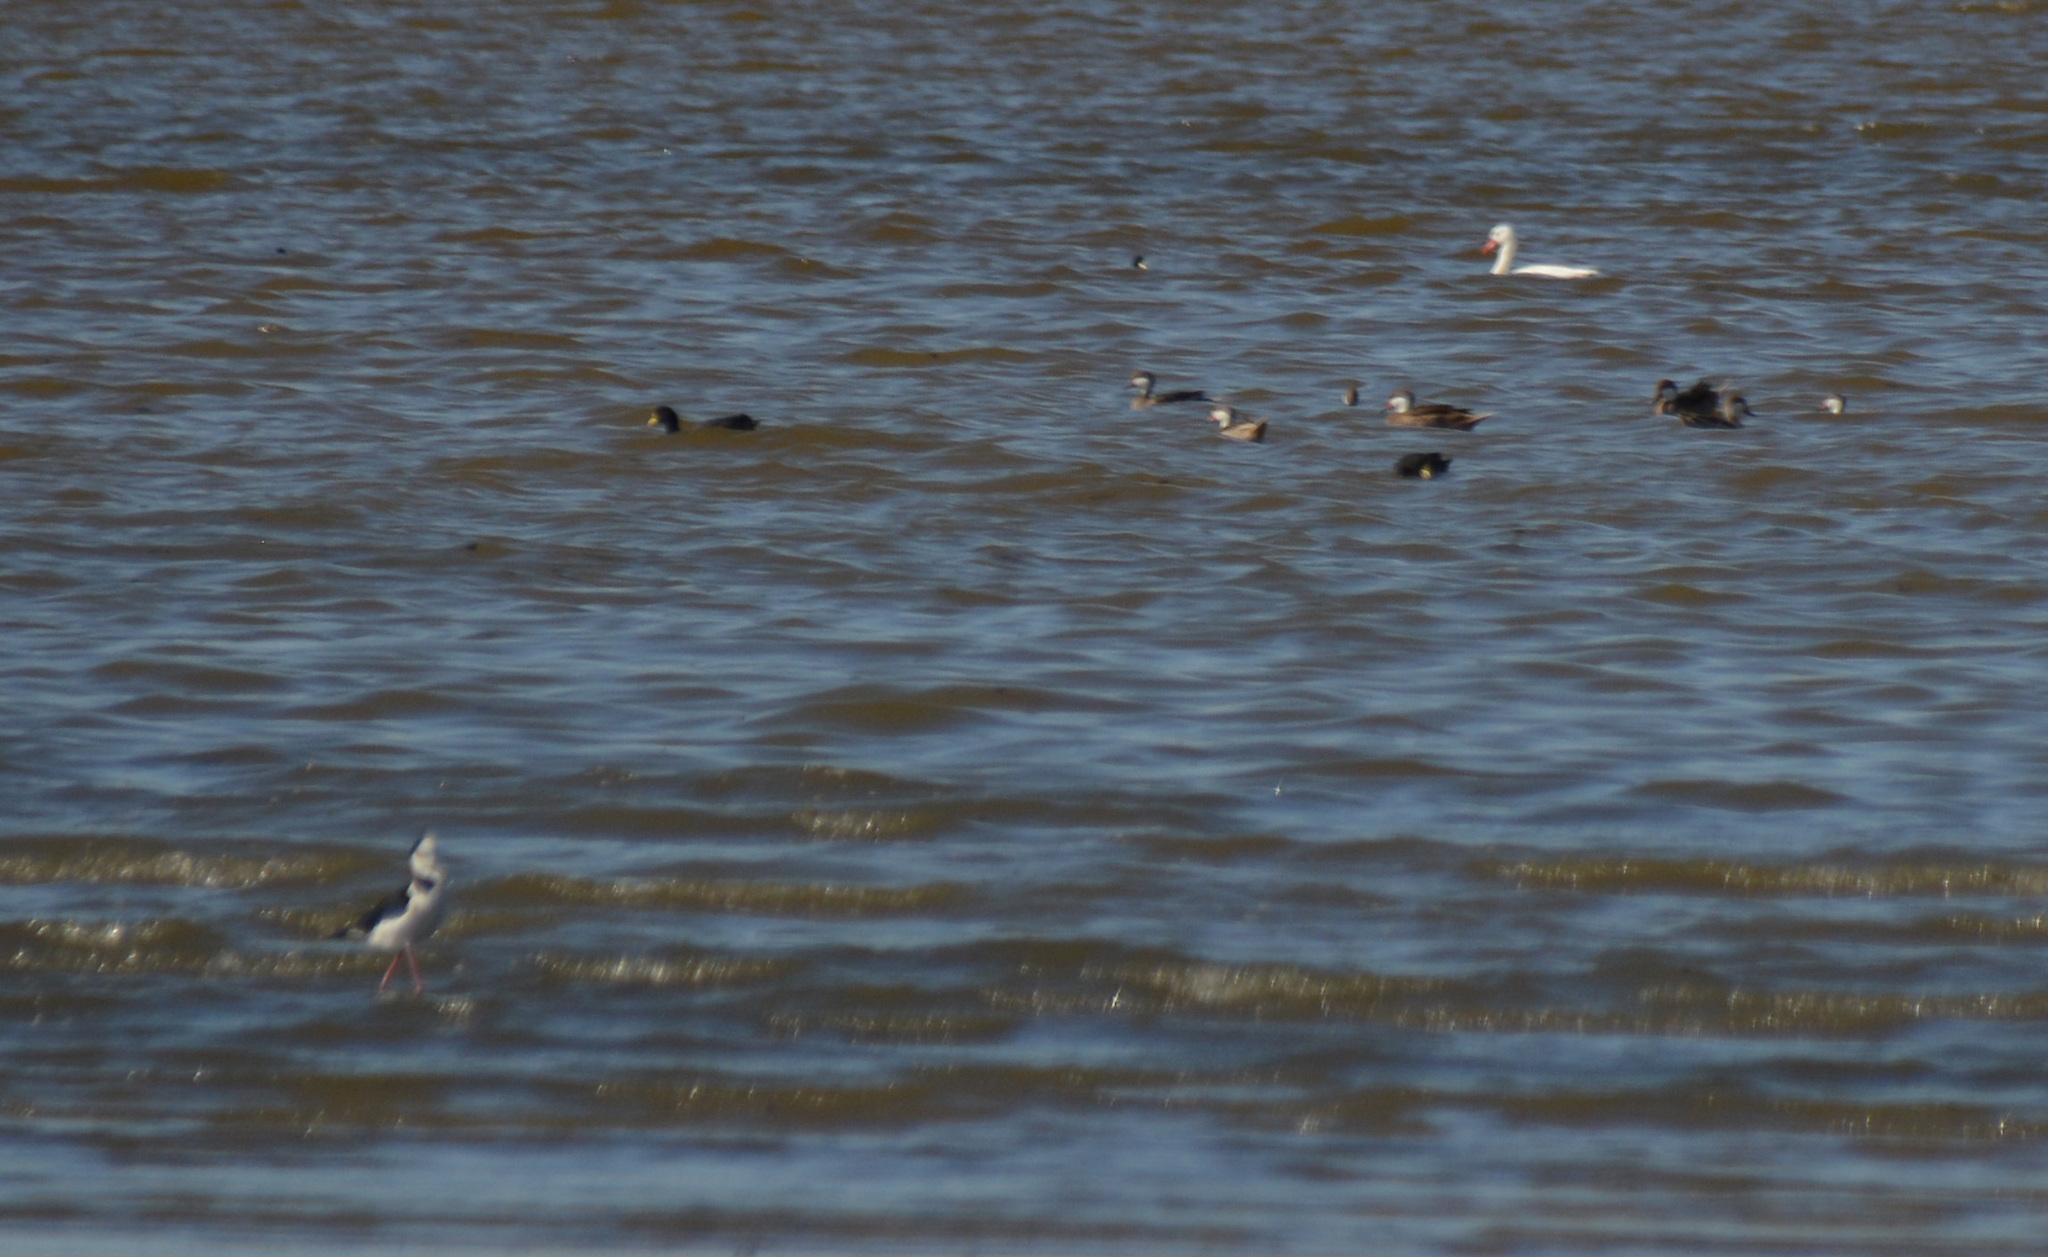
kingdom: Animalia
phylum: Chordata
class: Aves
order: Charadriiformes
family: Recurvirostridae
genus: Himantopus
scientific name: Himantopus mexicanus
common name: Black-necked stilt
